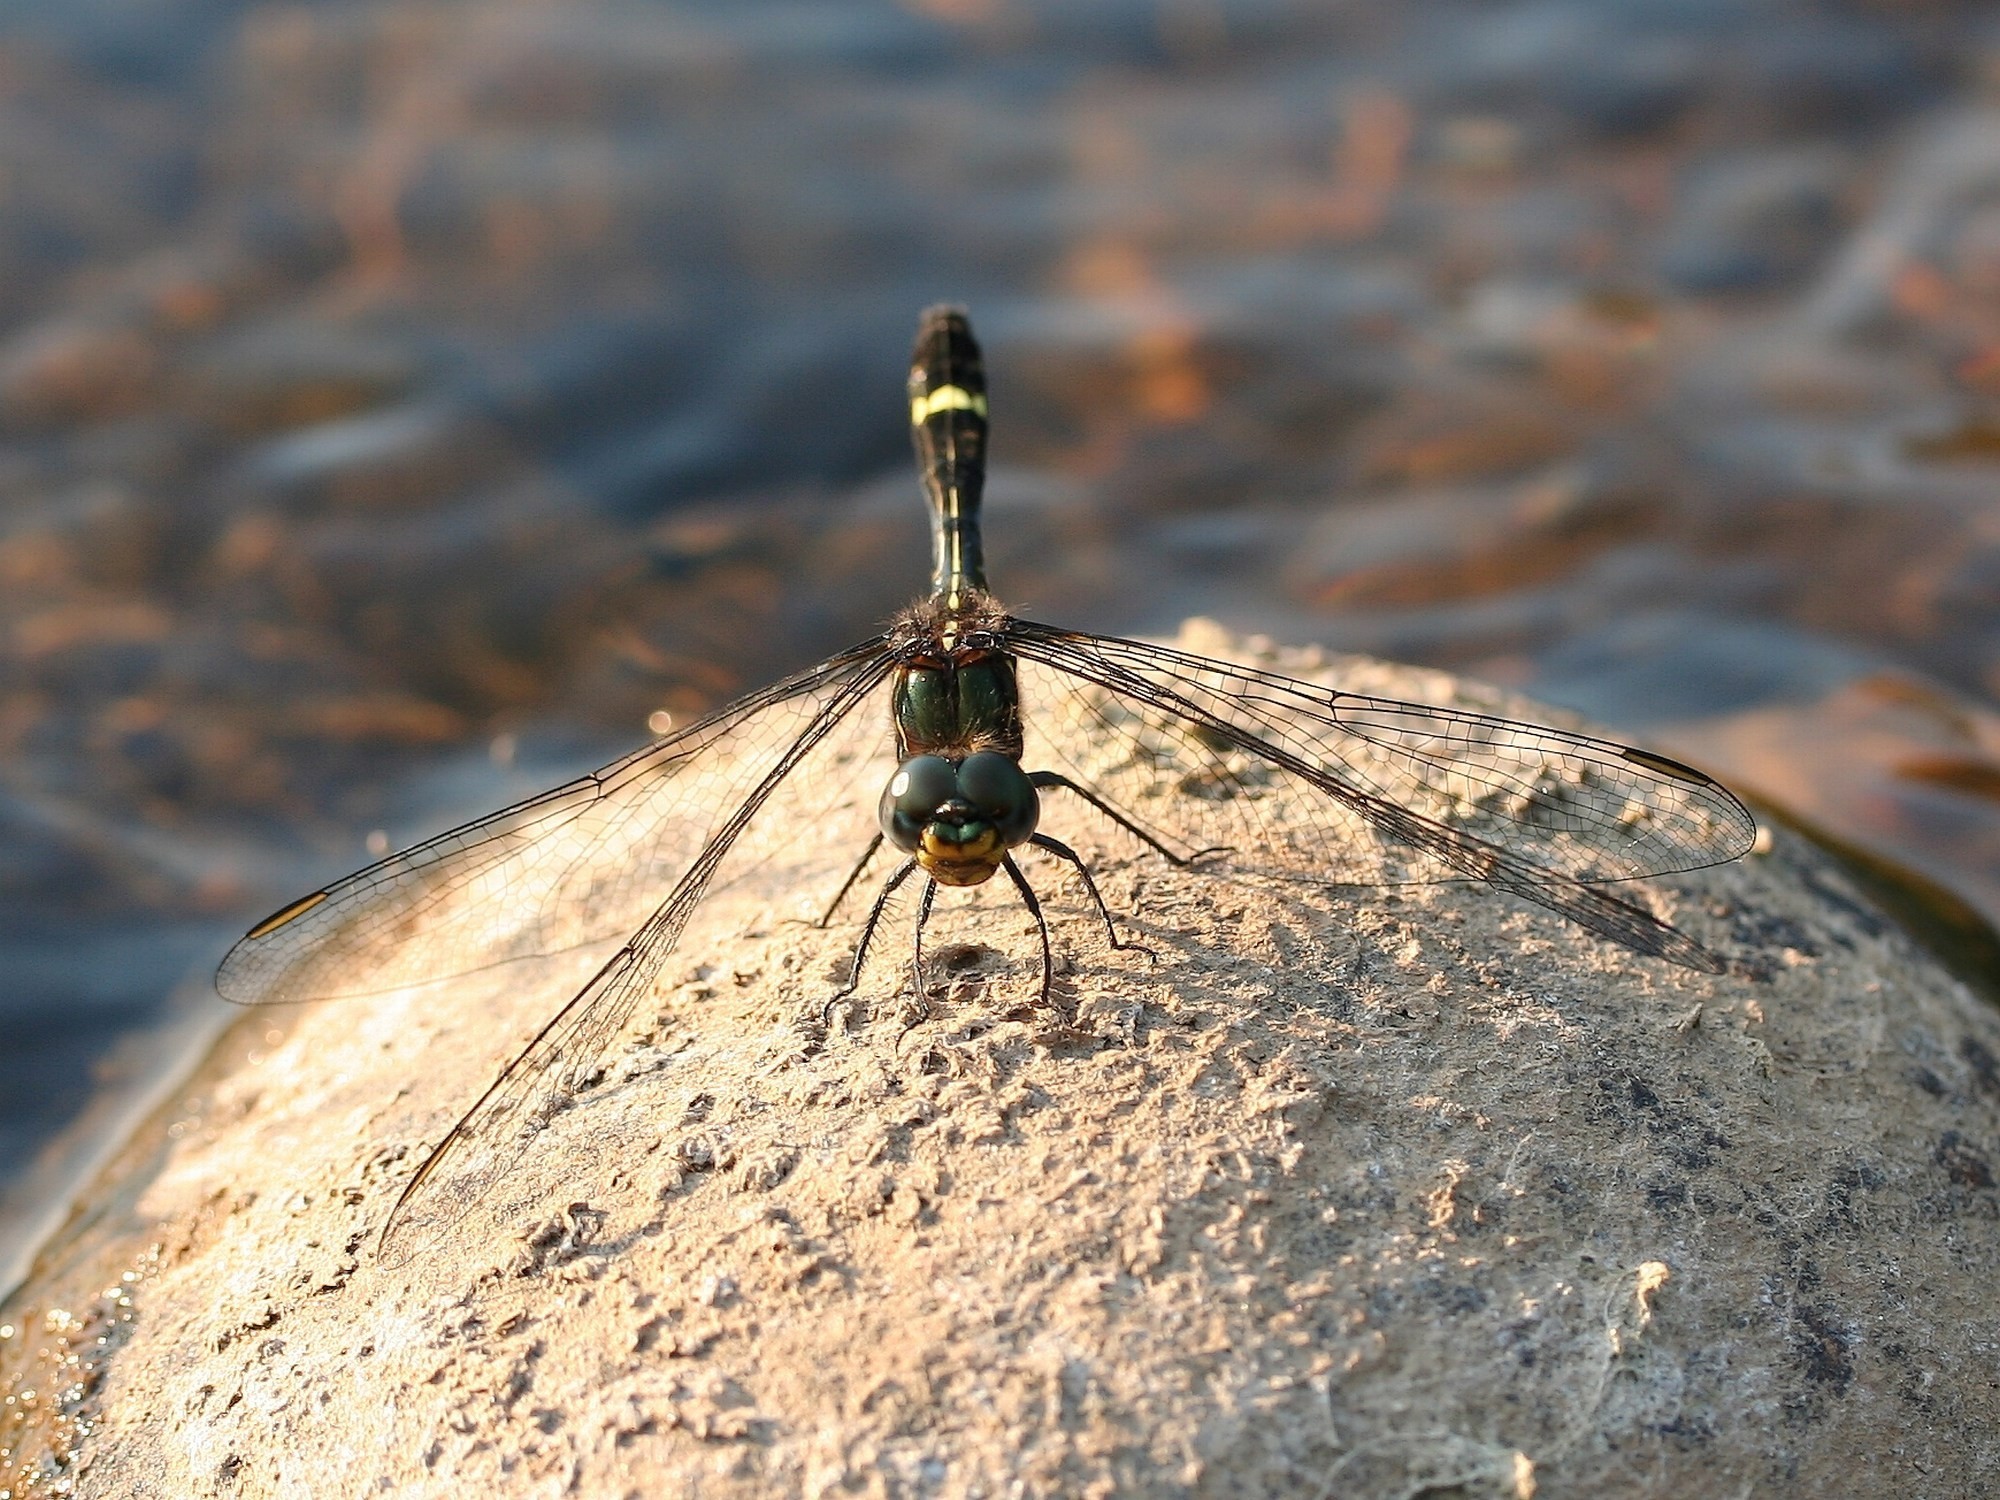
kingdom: Animalia
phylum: Arthropoda
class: Insecta
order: Odonata
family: Libellulidae
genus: Zygonoides
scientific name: Zygonoides lachesis
